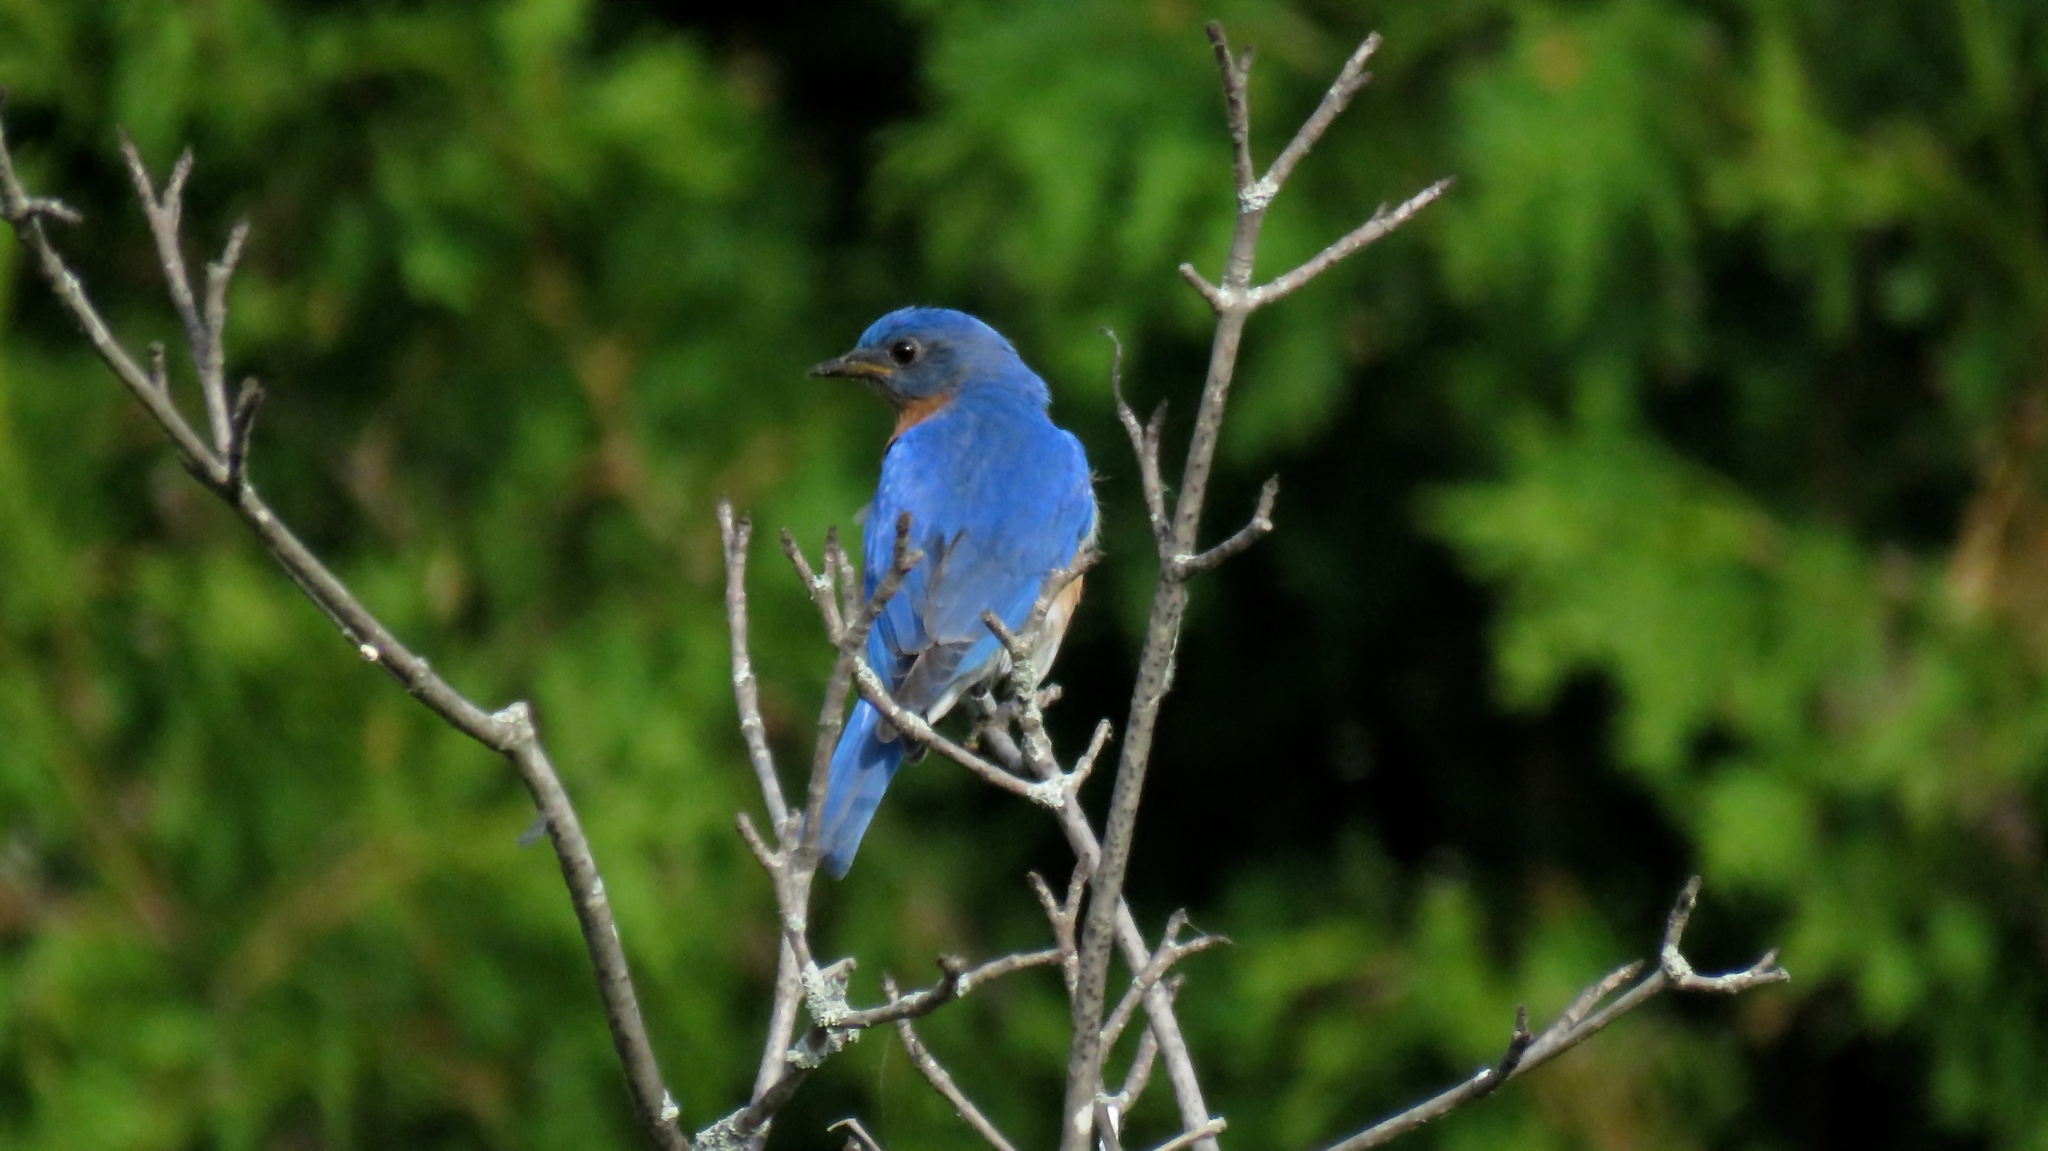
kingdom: Animalia
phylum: Chordata
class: Aves
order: Passeriformes
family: Turdidae
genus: Sialia
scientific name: Sialia sialis
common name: Eastern bluebird
